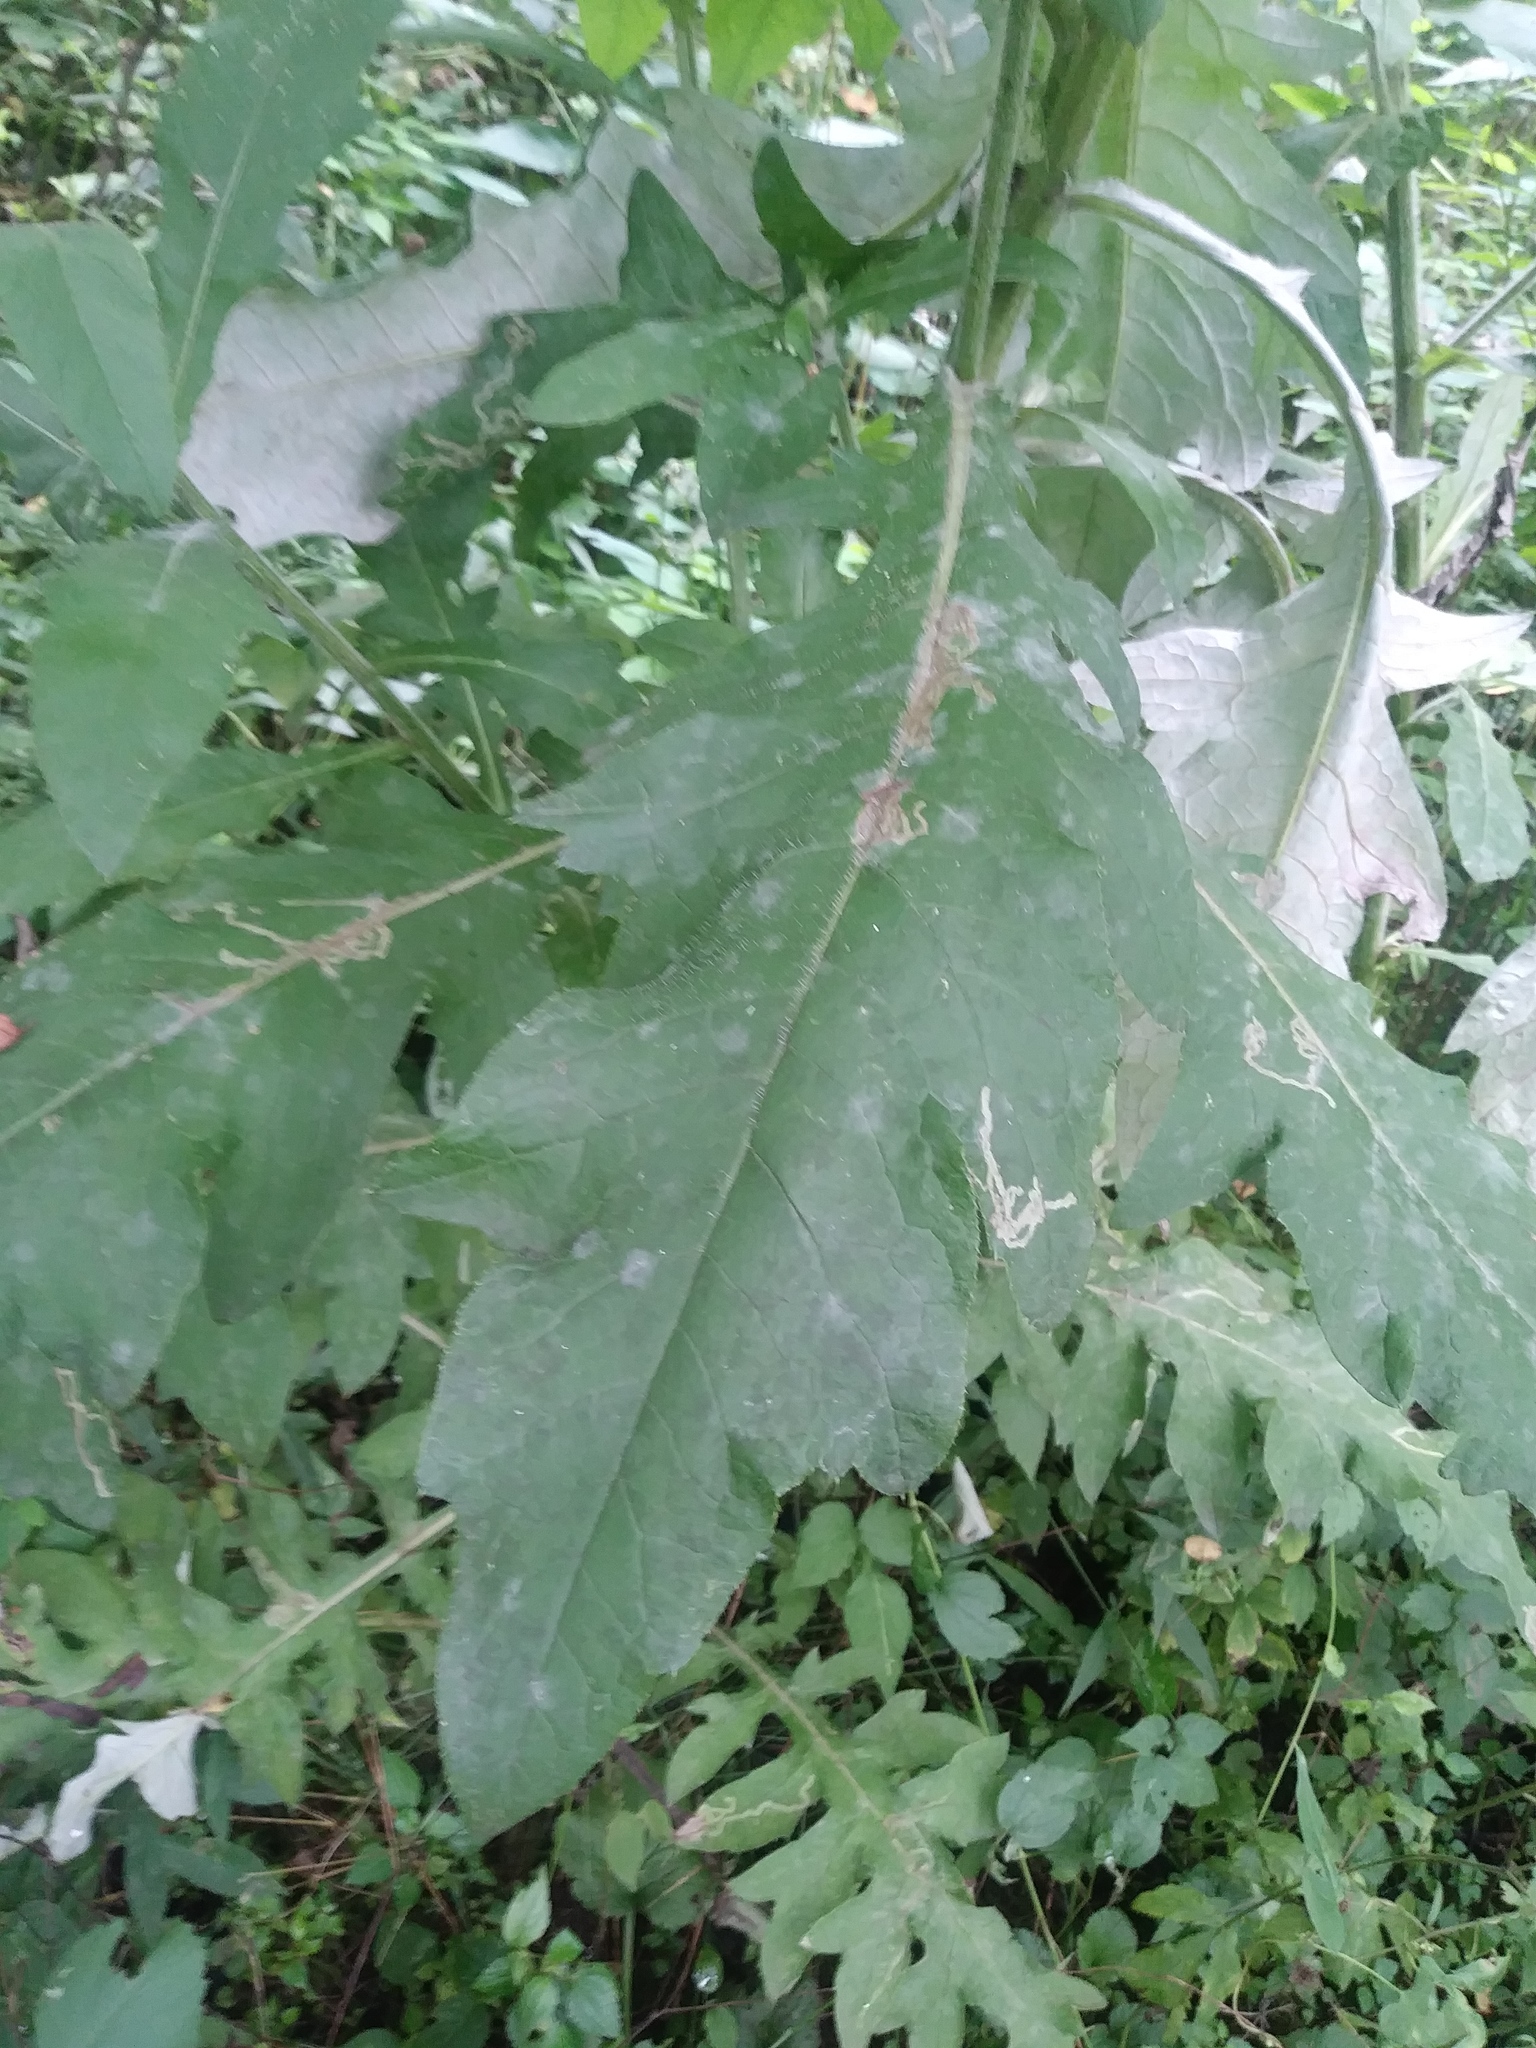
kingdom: Plantae
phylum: Tracheophyta
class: Magnoliopsida
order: Asterales
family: Asteraceae
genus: Cirsium
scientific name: Cirsium altissimum
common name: Roadside thistle
